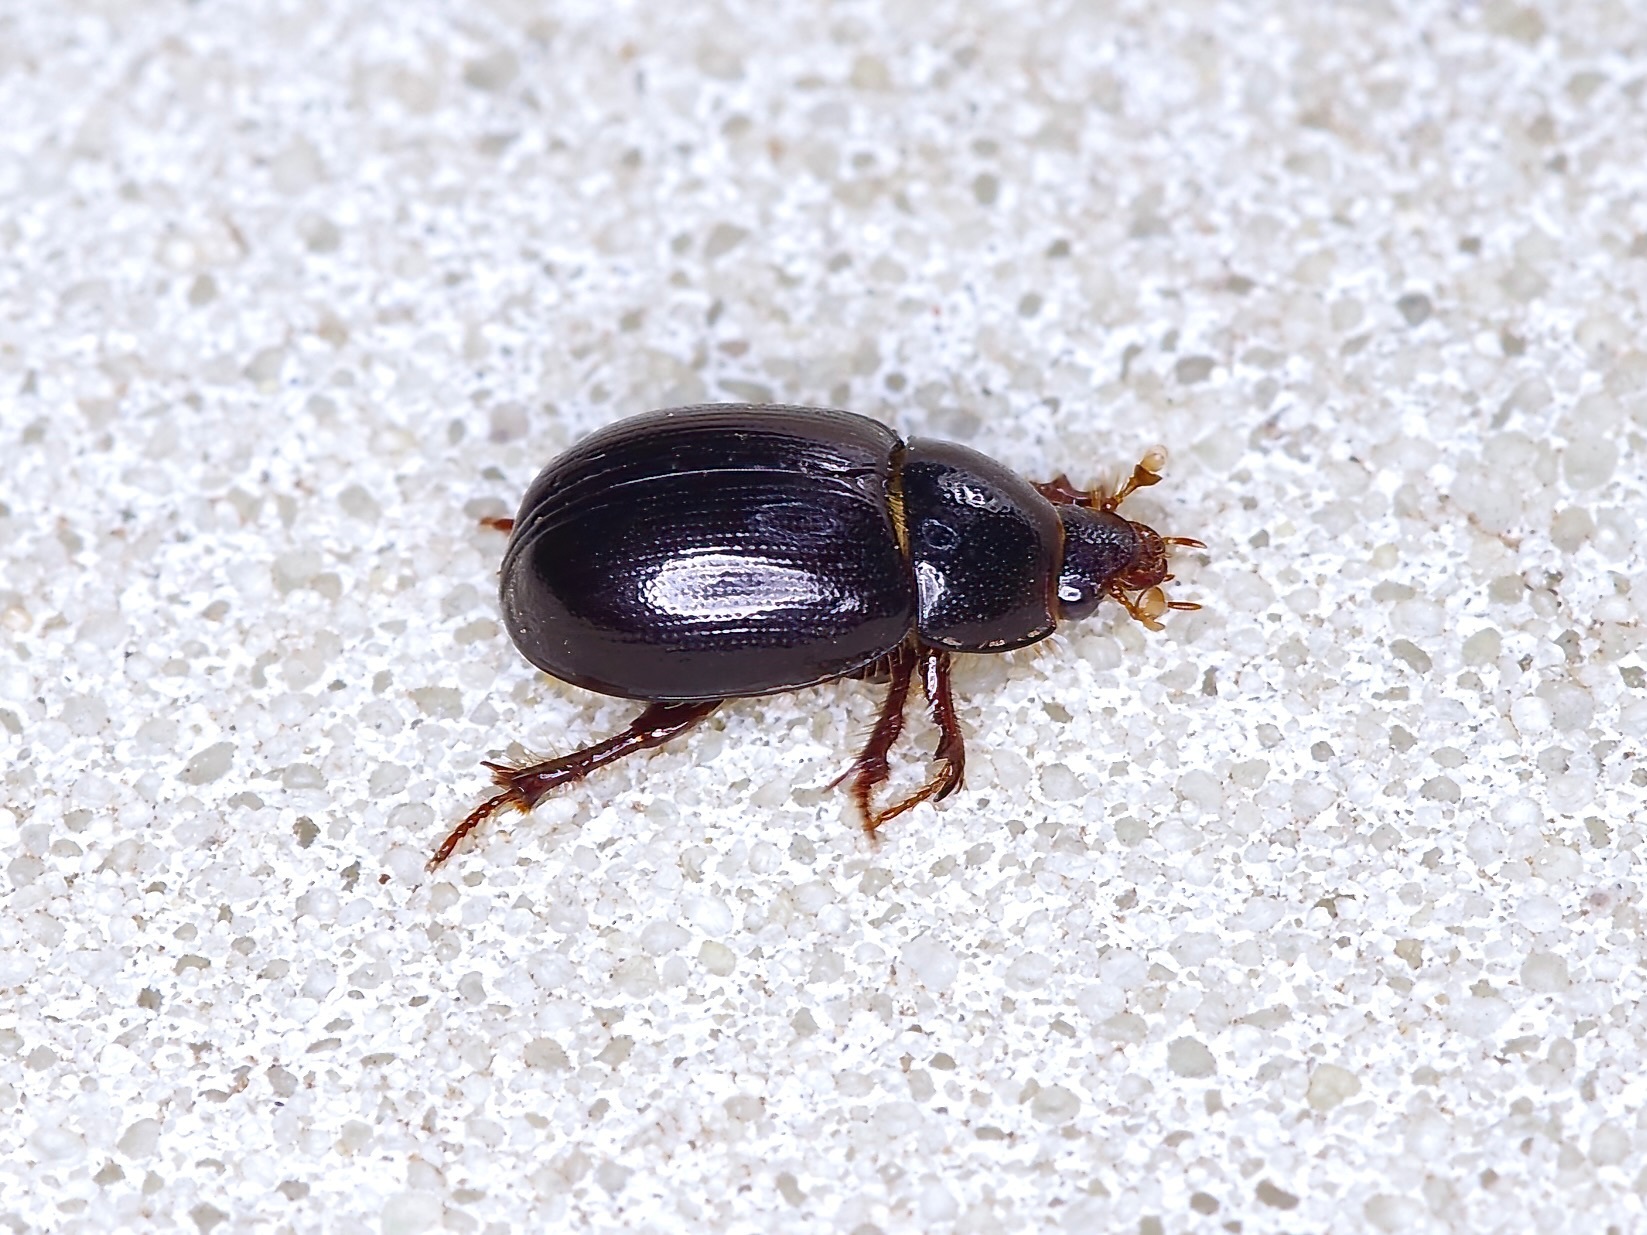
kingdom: Animalia
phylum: Arthropoda
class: Insecta
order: Coleoptera
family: Hybosoridae
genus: Hybosorus
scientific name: Hybosorus illigeri
